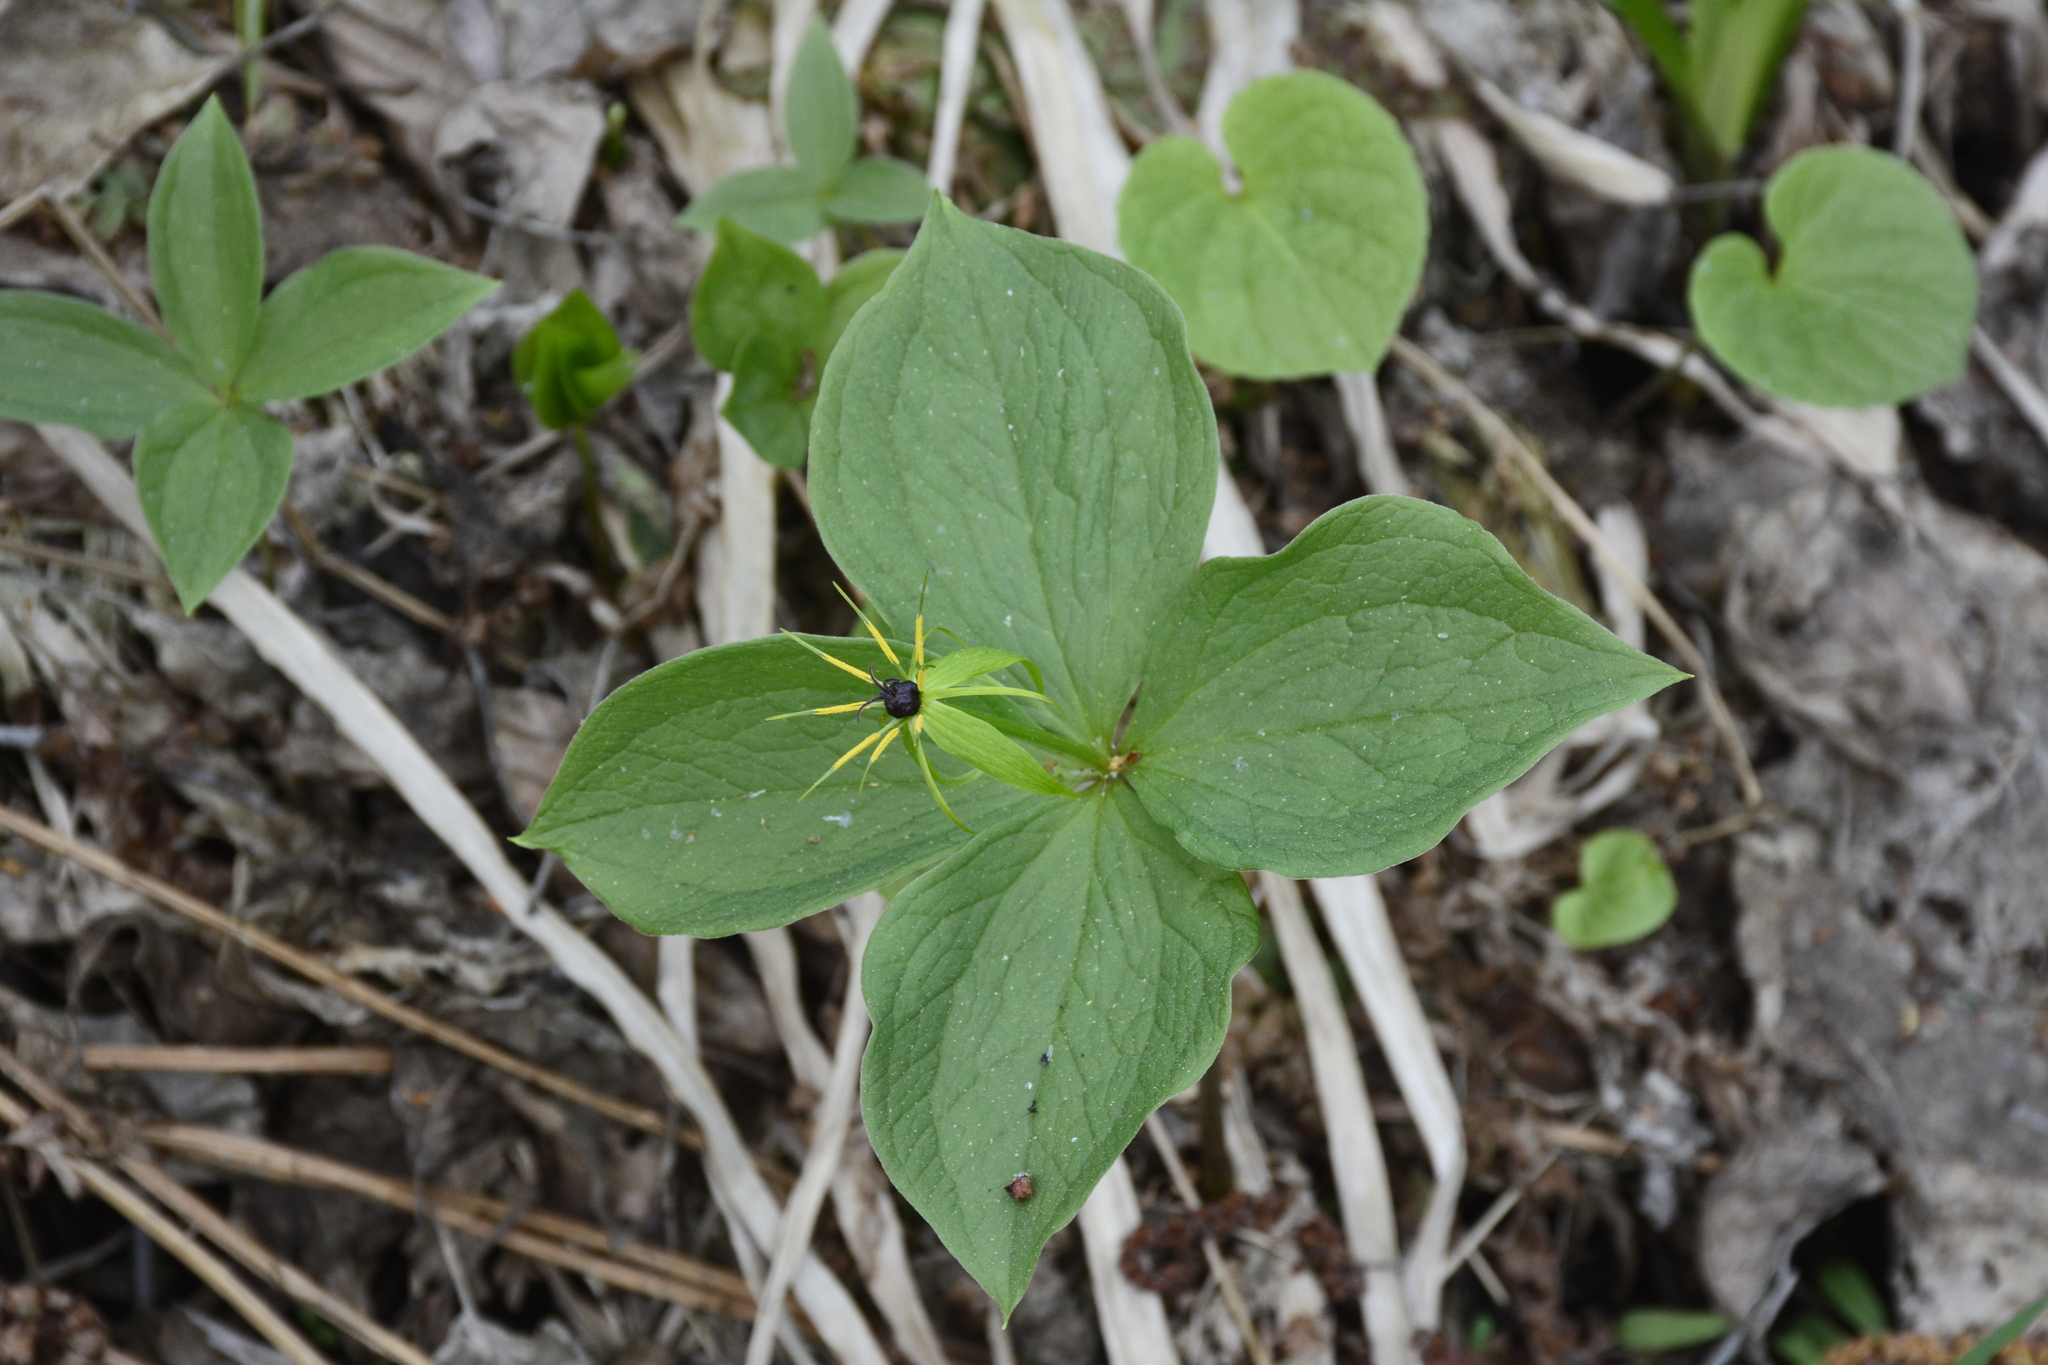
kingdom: Plantae
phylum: Tracheophyta
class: Liliopsida
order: Liliales
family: Melanthiaceae
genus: Paris
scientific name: Paris quadrifolia
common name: Herb-paris
